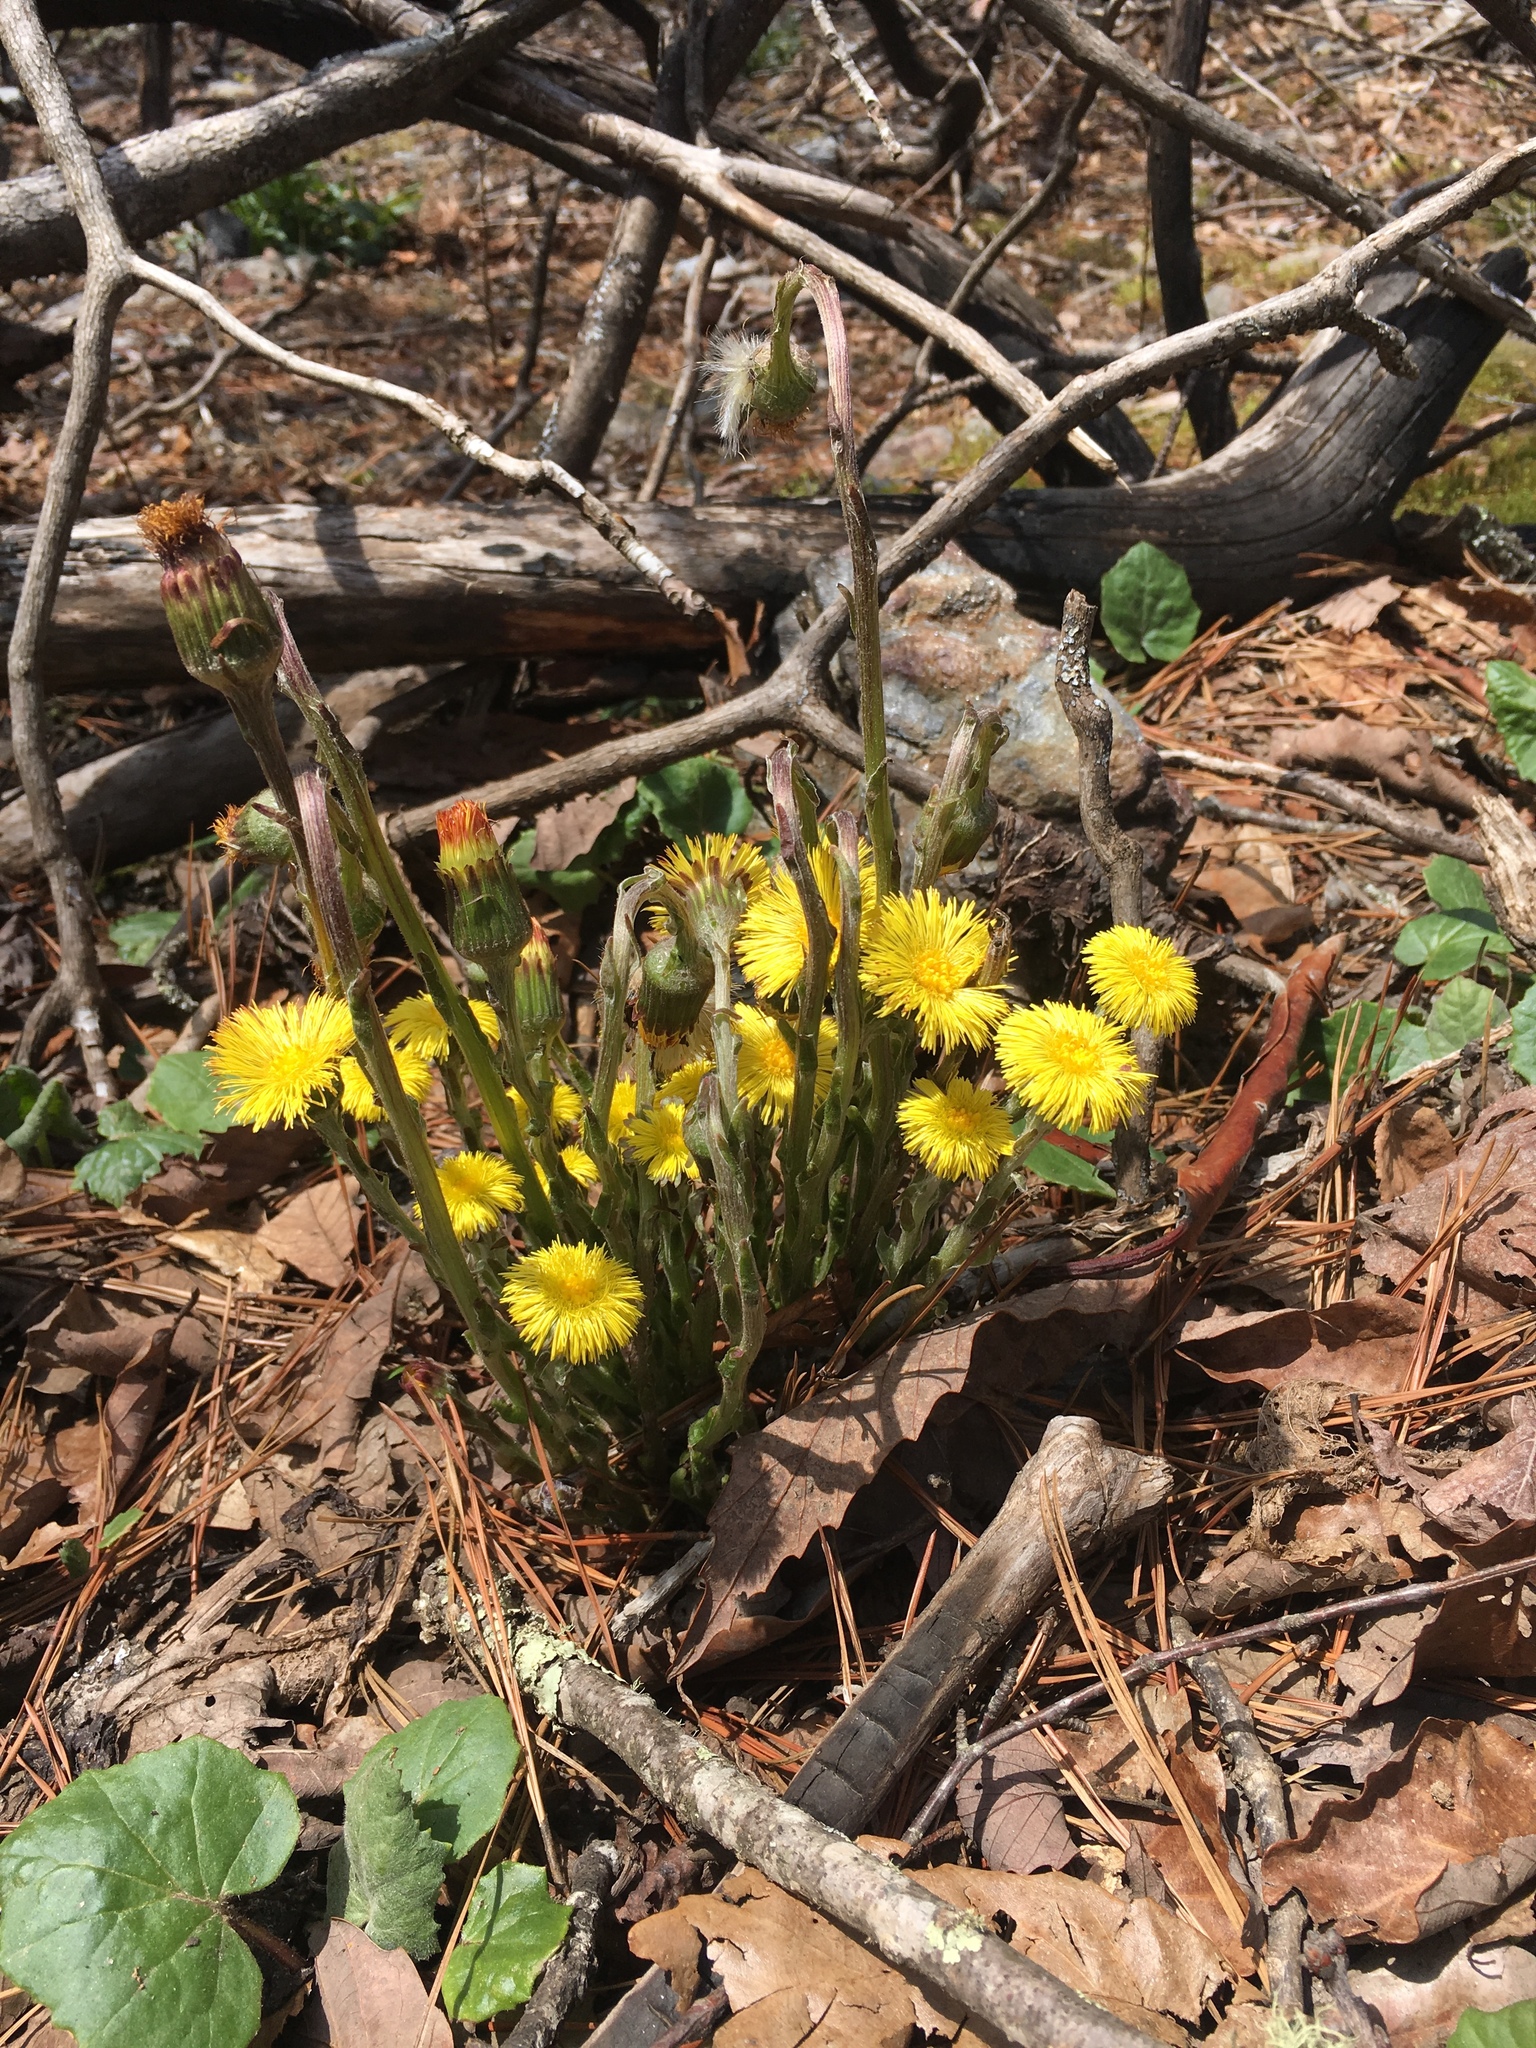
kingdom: Plantae
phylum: Tracheophyta
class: Magnoliopsida
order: Asterales
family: Asteraceae
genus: Tussilago
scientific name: Tussilago farfara
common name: Coltsfoot
